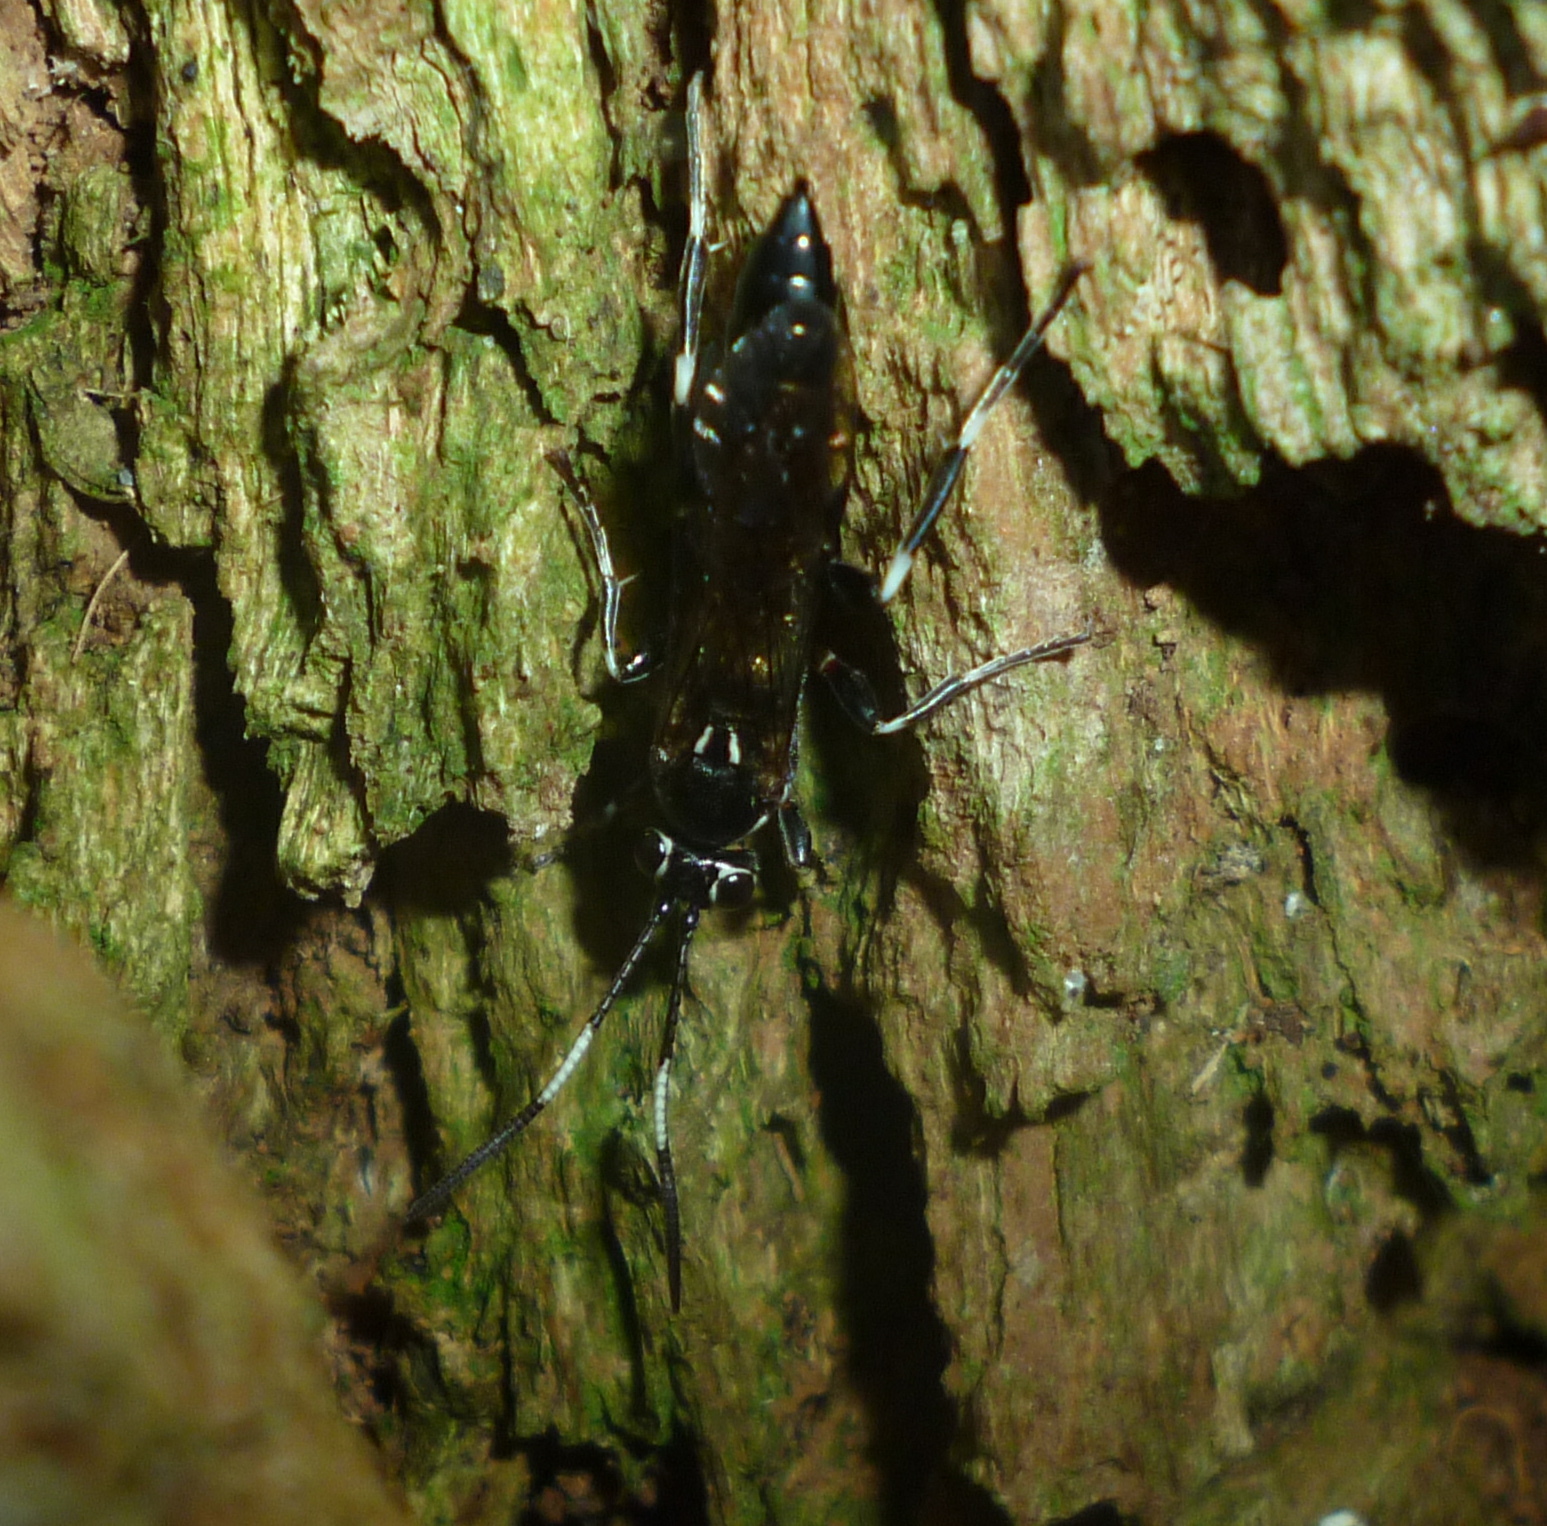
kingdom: Animalia
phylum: Arthropoda
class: Insecta
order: Hymenoptera
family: Ichneumonidae
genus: Coelichneumon
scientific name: Coelichneumon navus
